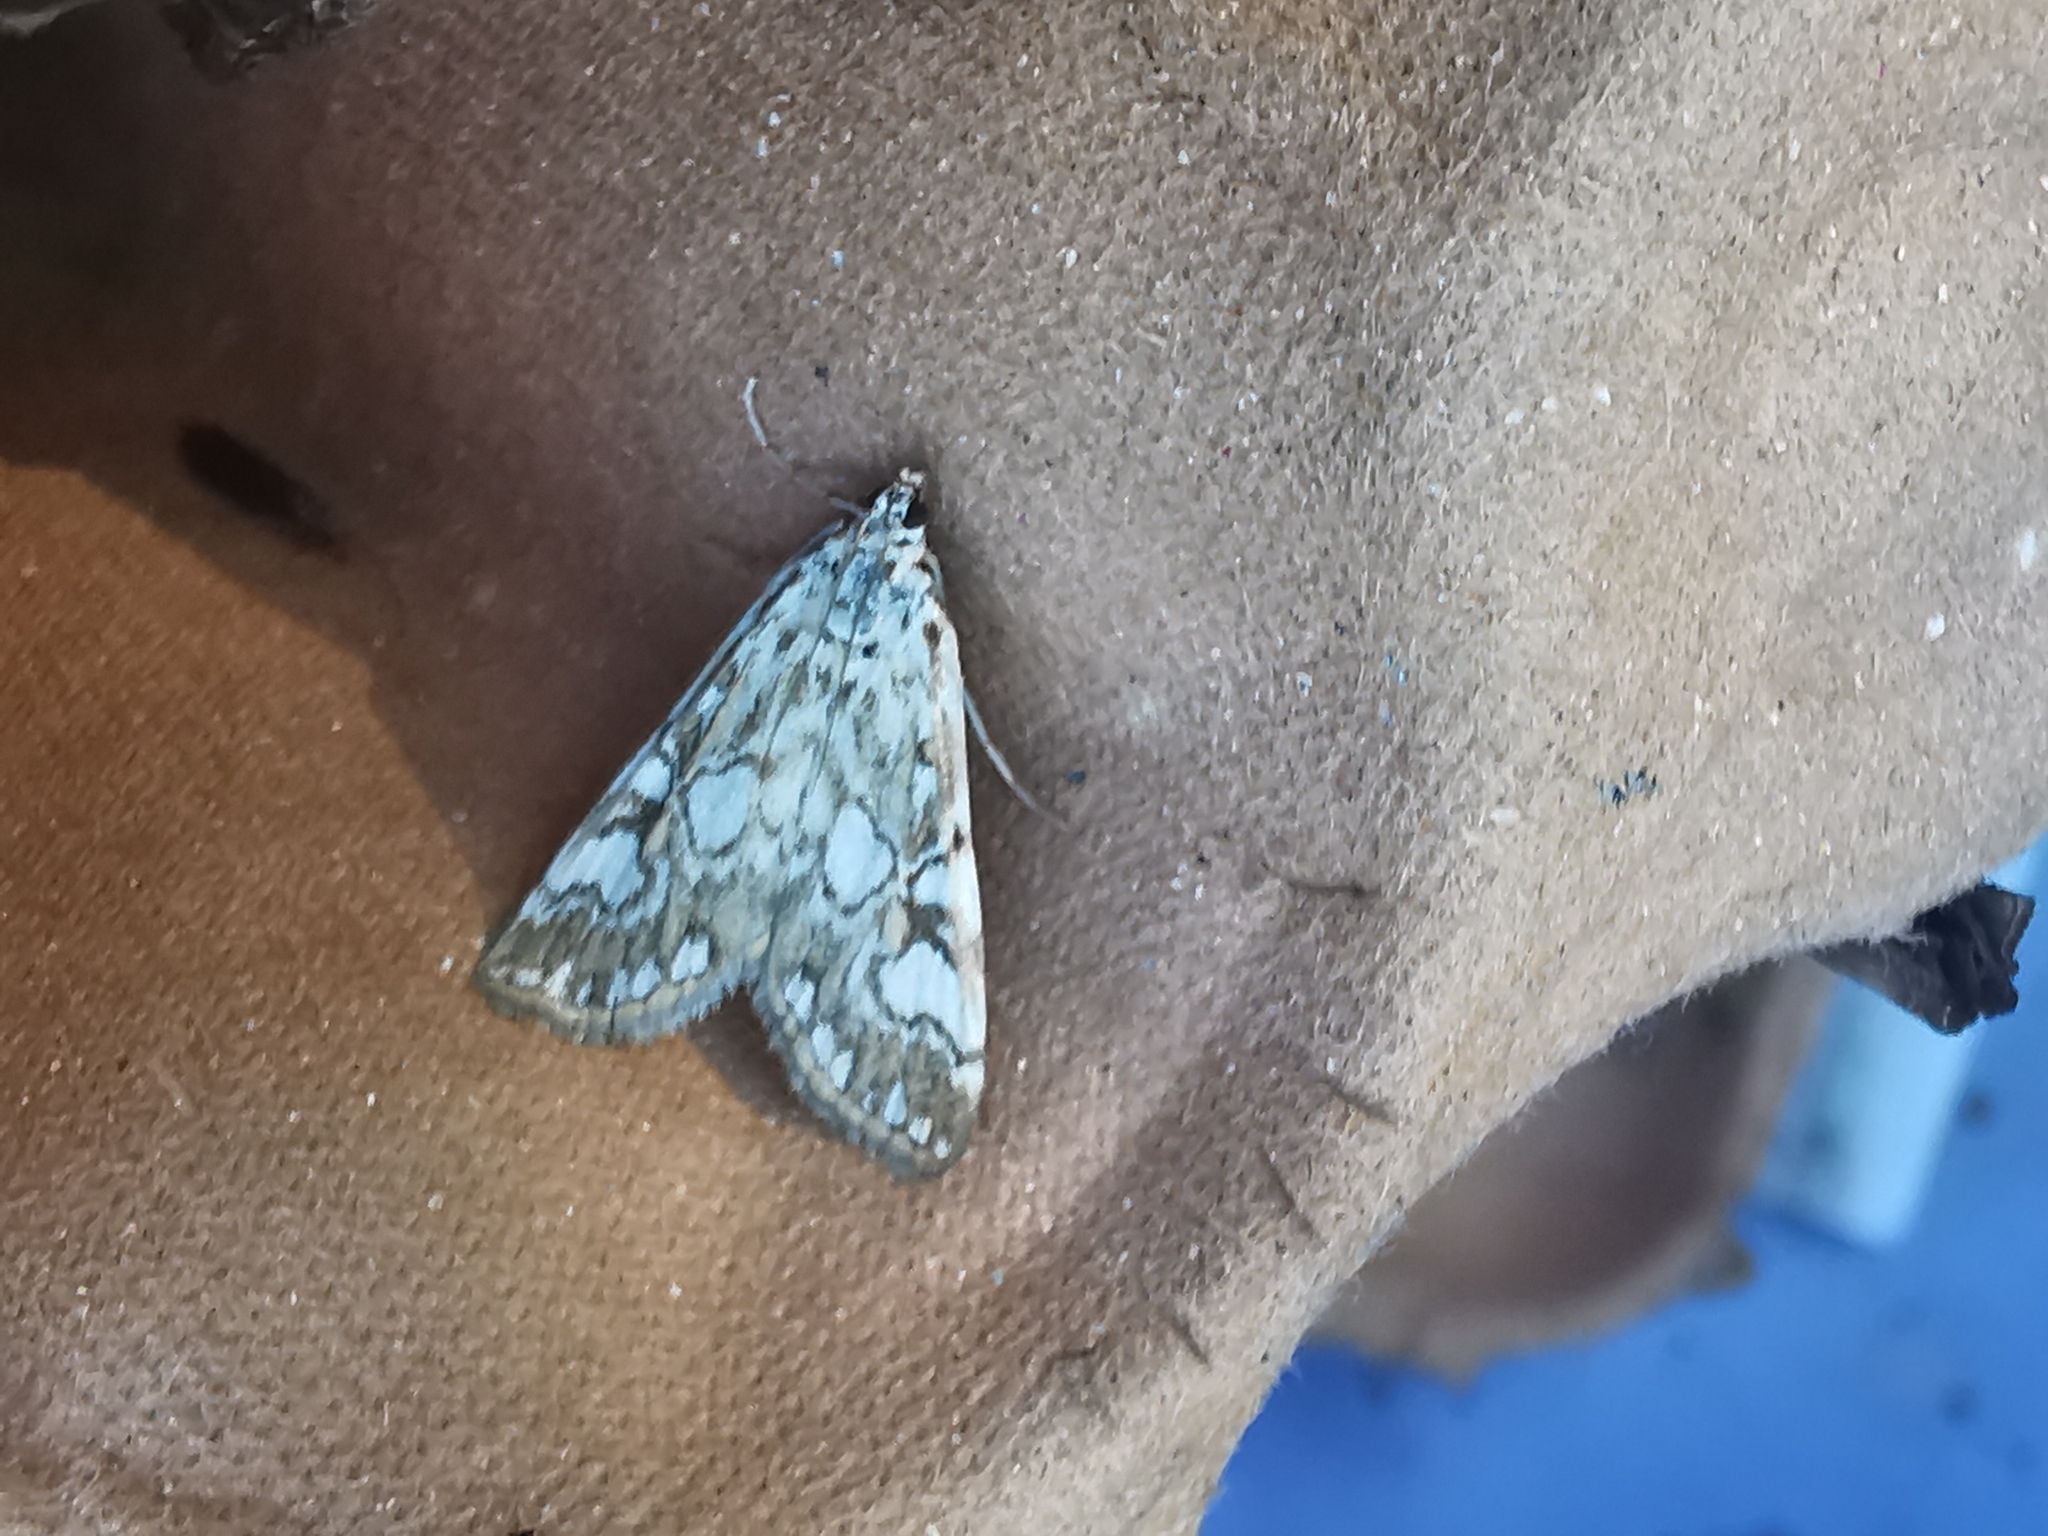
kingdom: Animalia
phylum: Arthropoda
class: Insecta
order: Lepidoptera
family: Crambidae
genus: Elophila
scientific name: Elophila nymphaeata
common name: Brown china-mark
